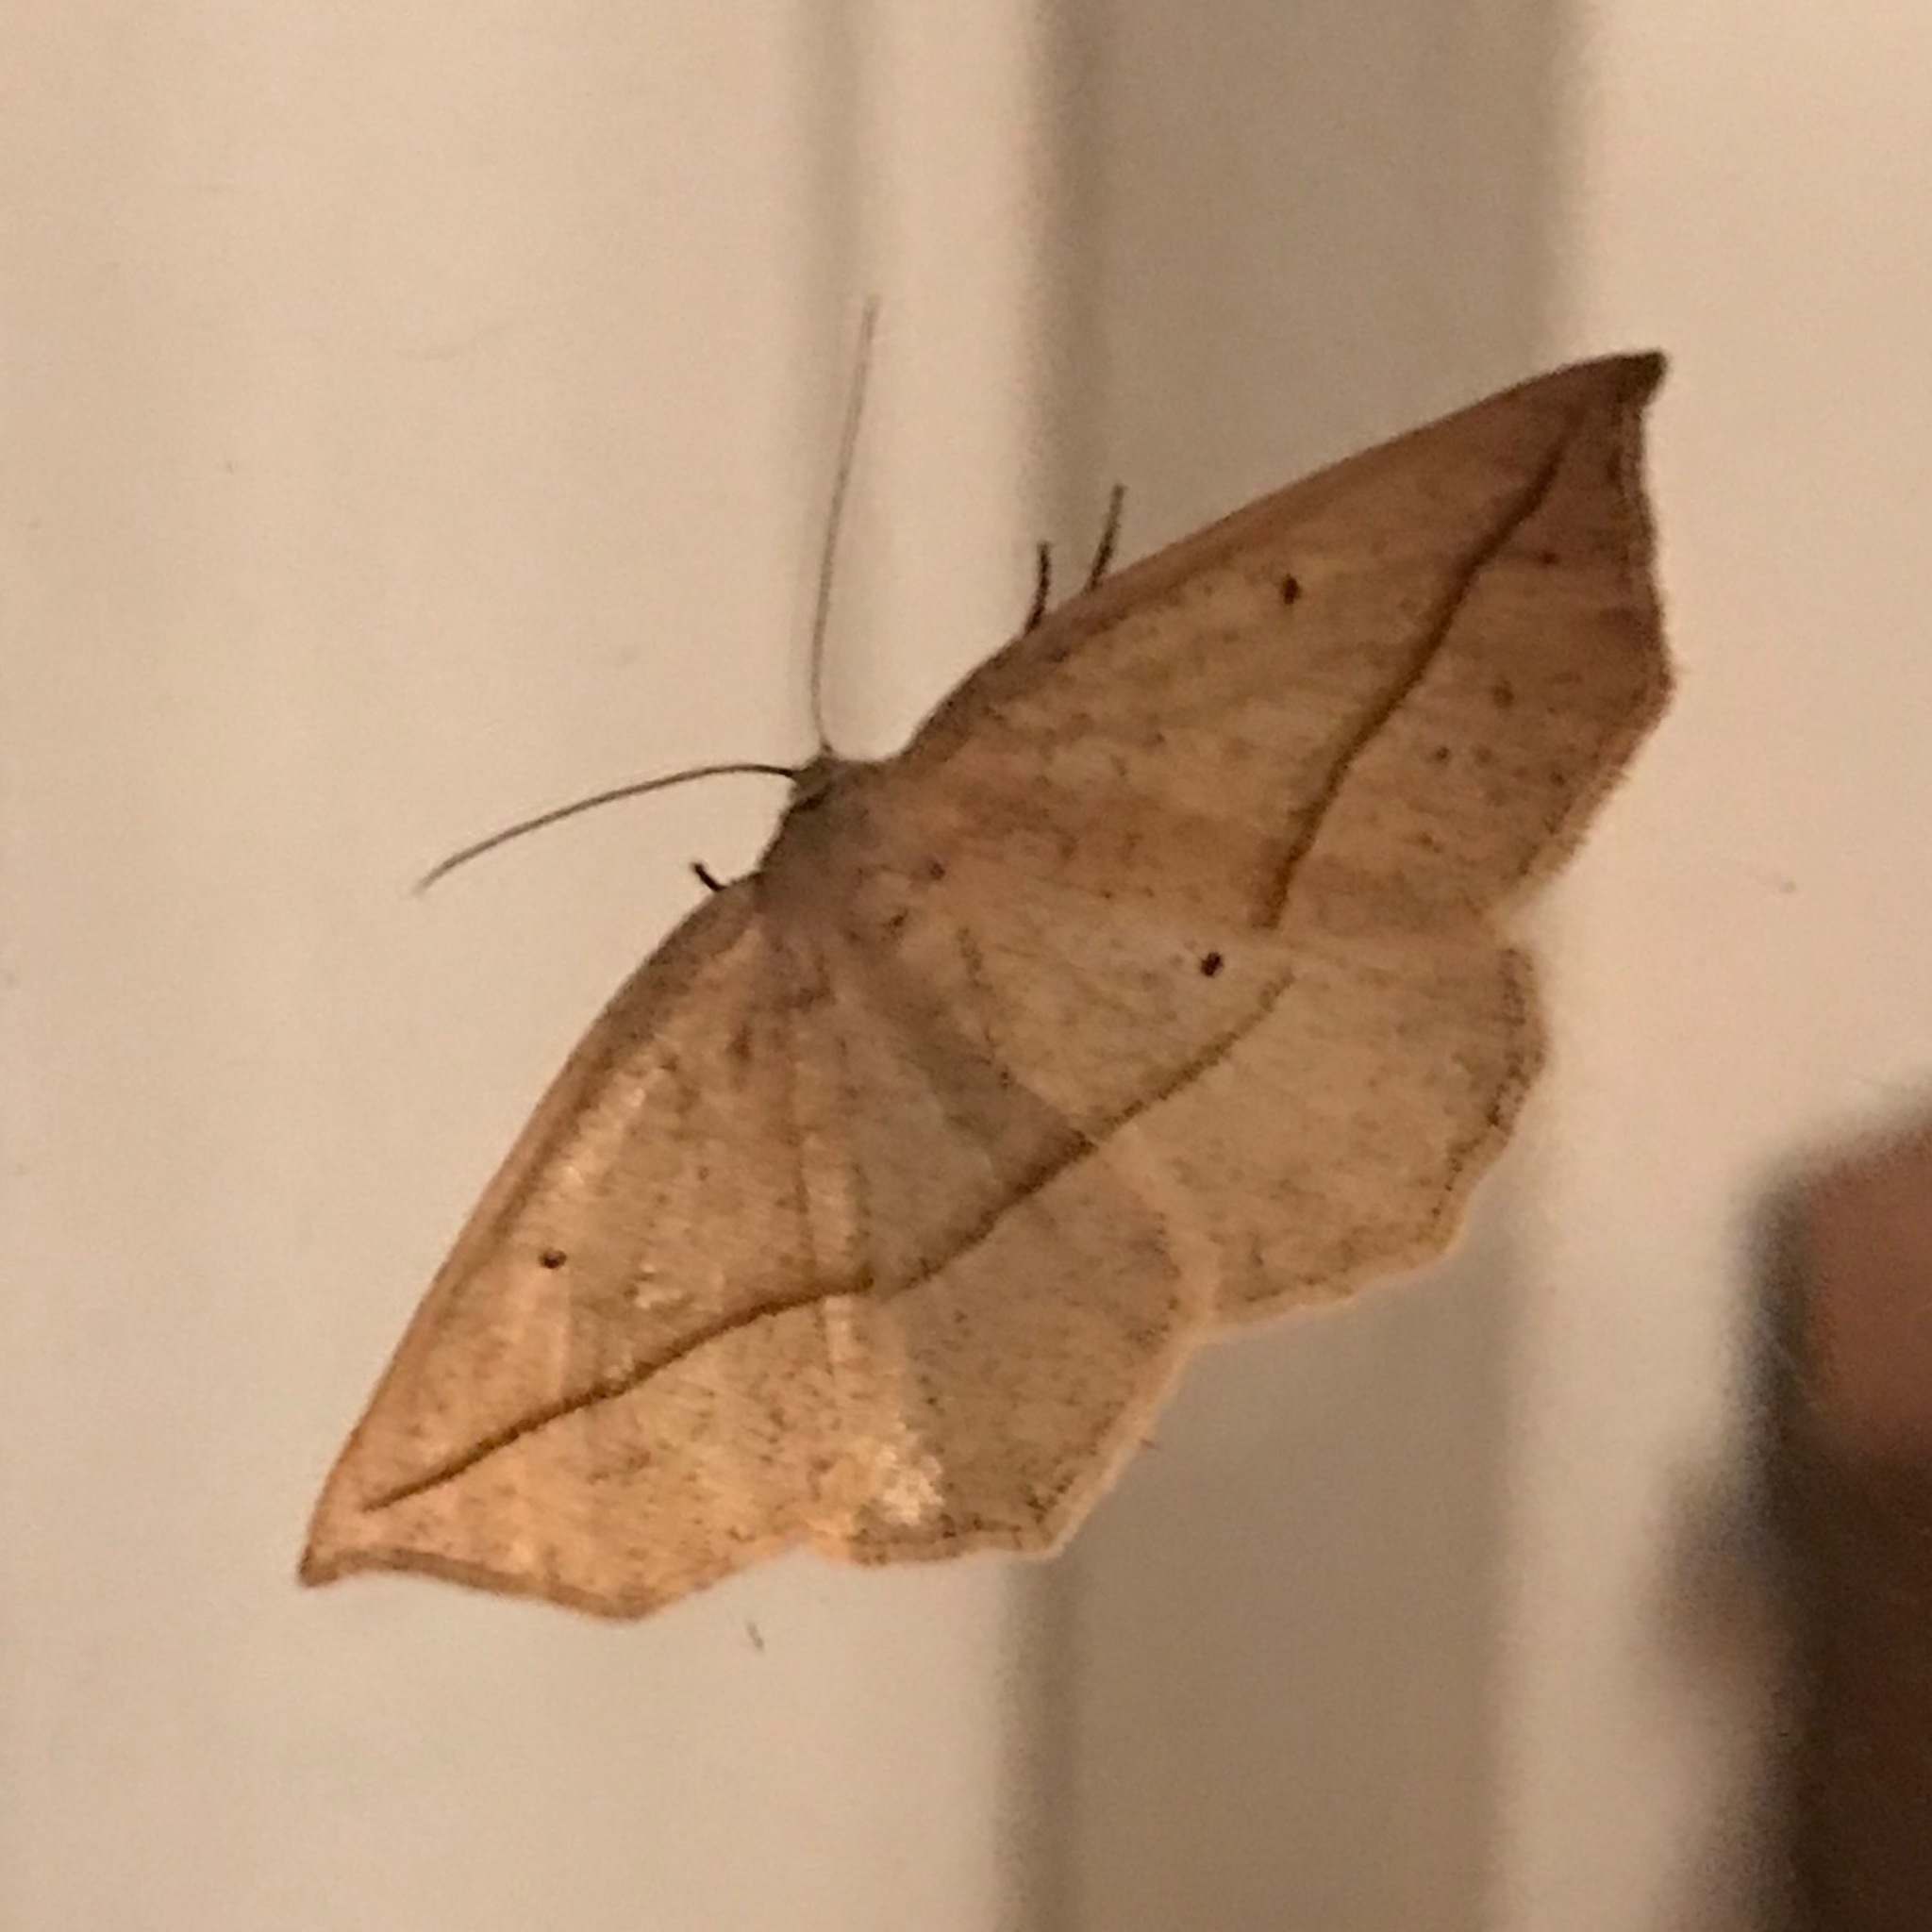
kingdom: Animalia
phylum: Arthropoda
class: Insecta
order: Lepidoptera
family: Geometridae
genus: Eusarca
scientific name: Eusarca confusaria
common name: Confused eusarca
